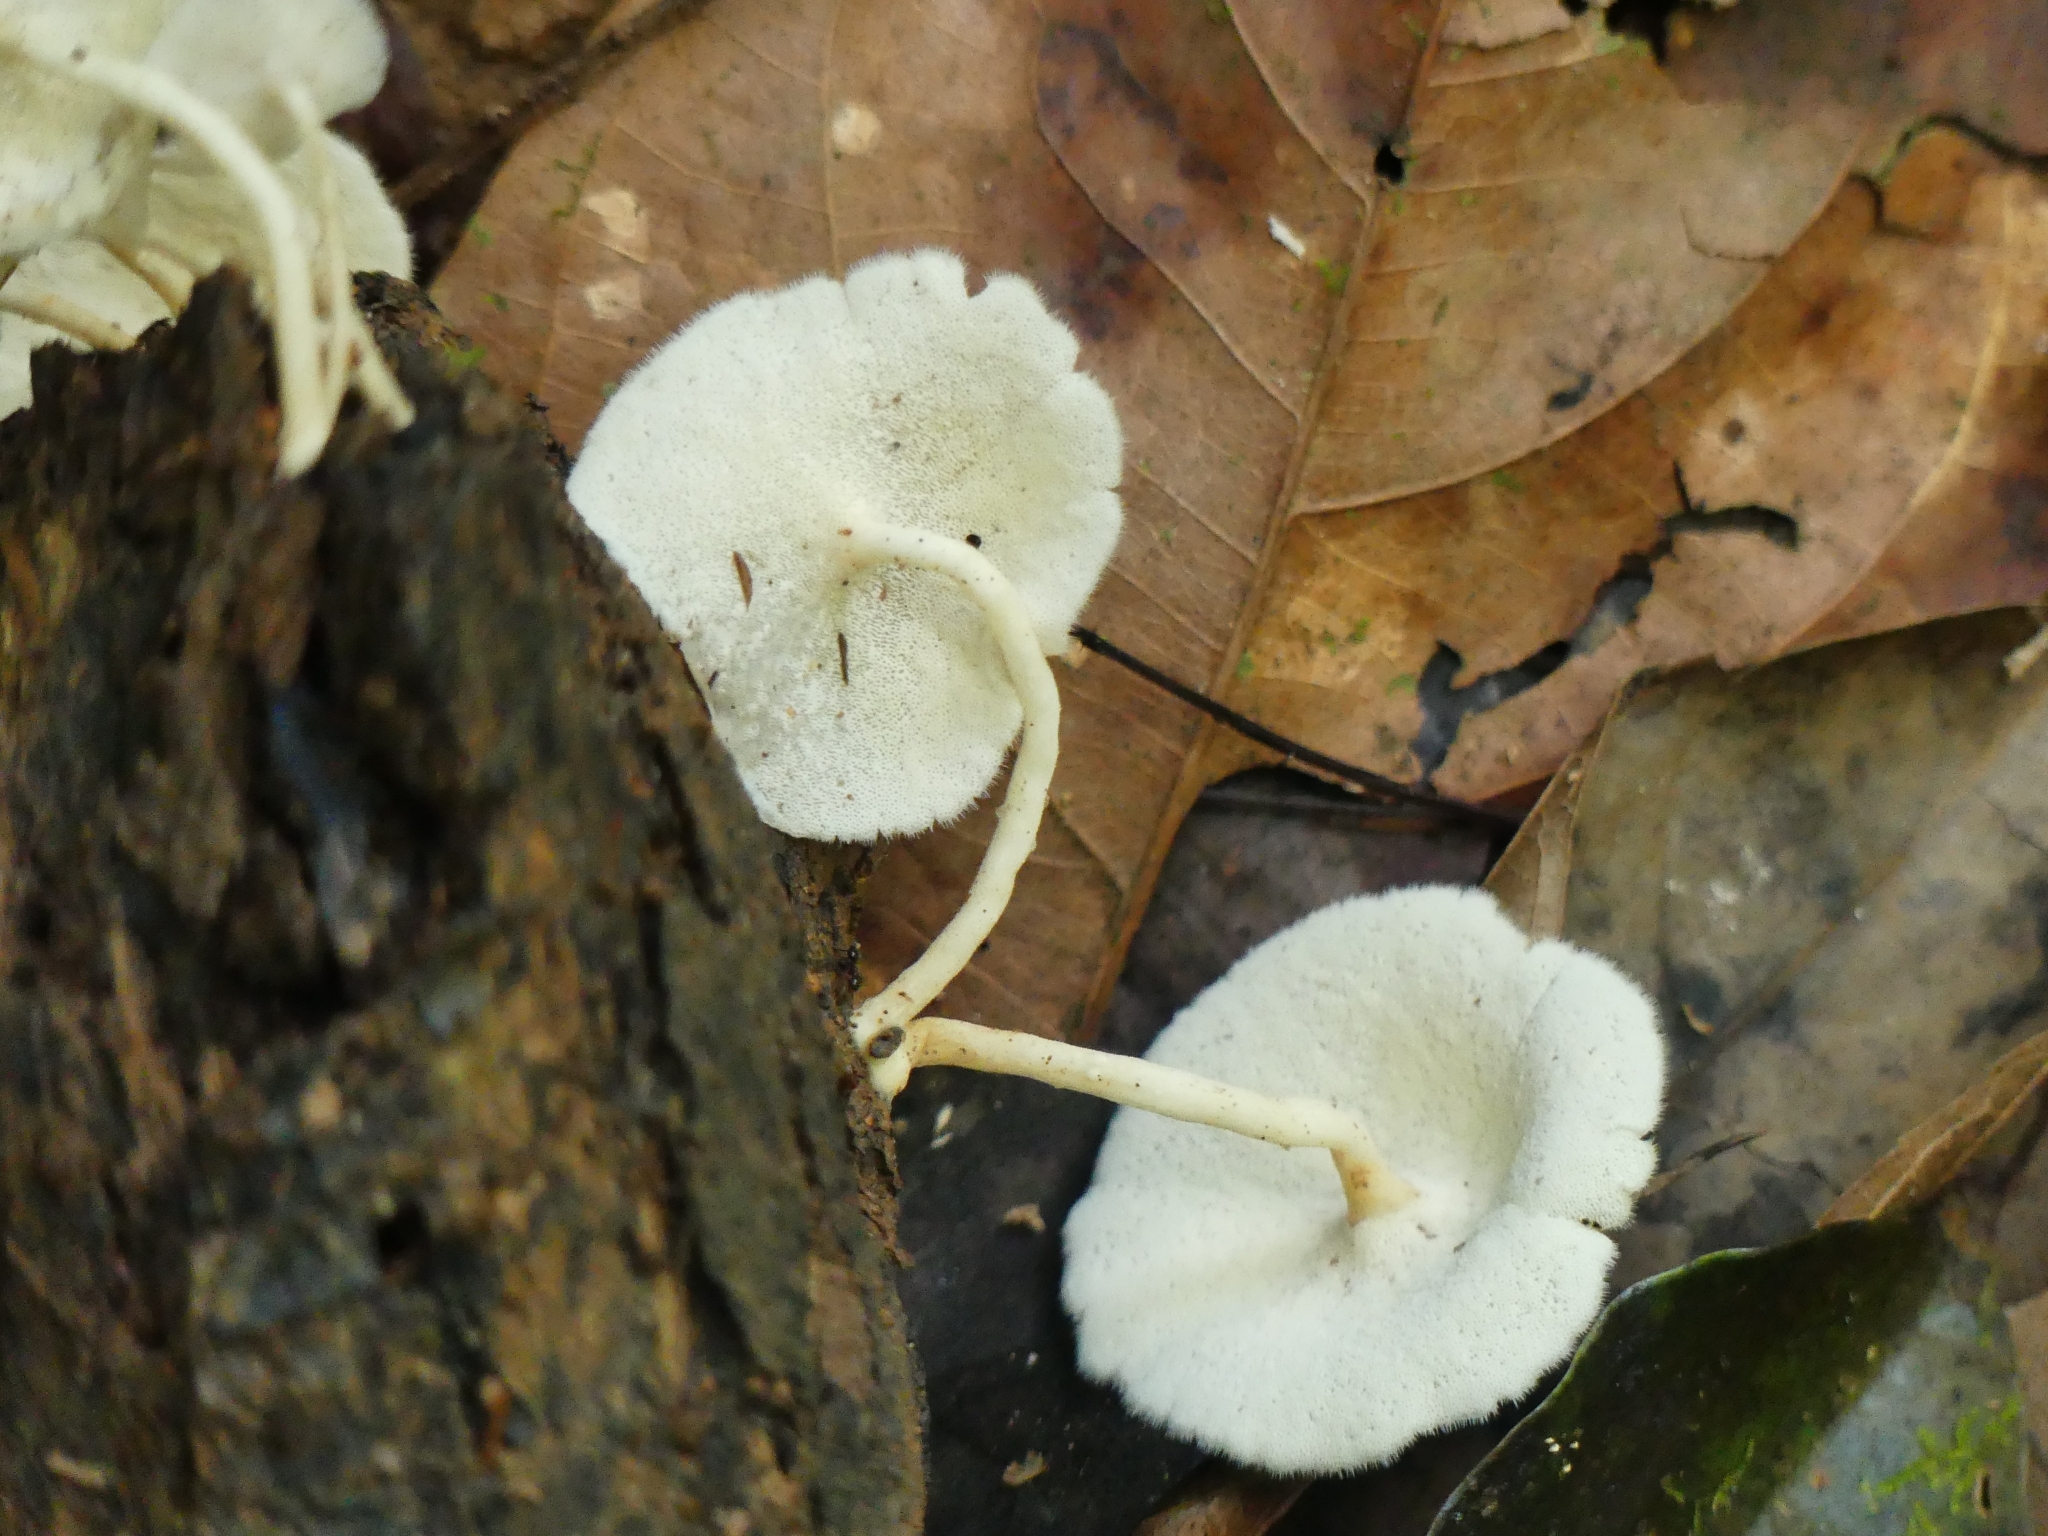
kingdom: Fungi
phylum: Basidiomycota
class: Agaricomycetes
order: Polyporales
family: Polyporaceae
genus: Lentinus
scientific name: Lentinus flexipes
